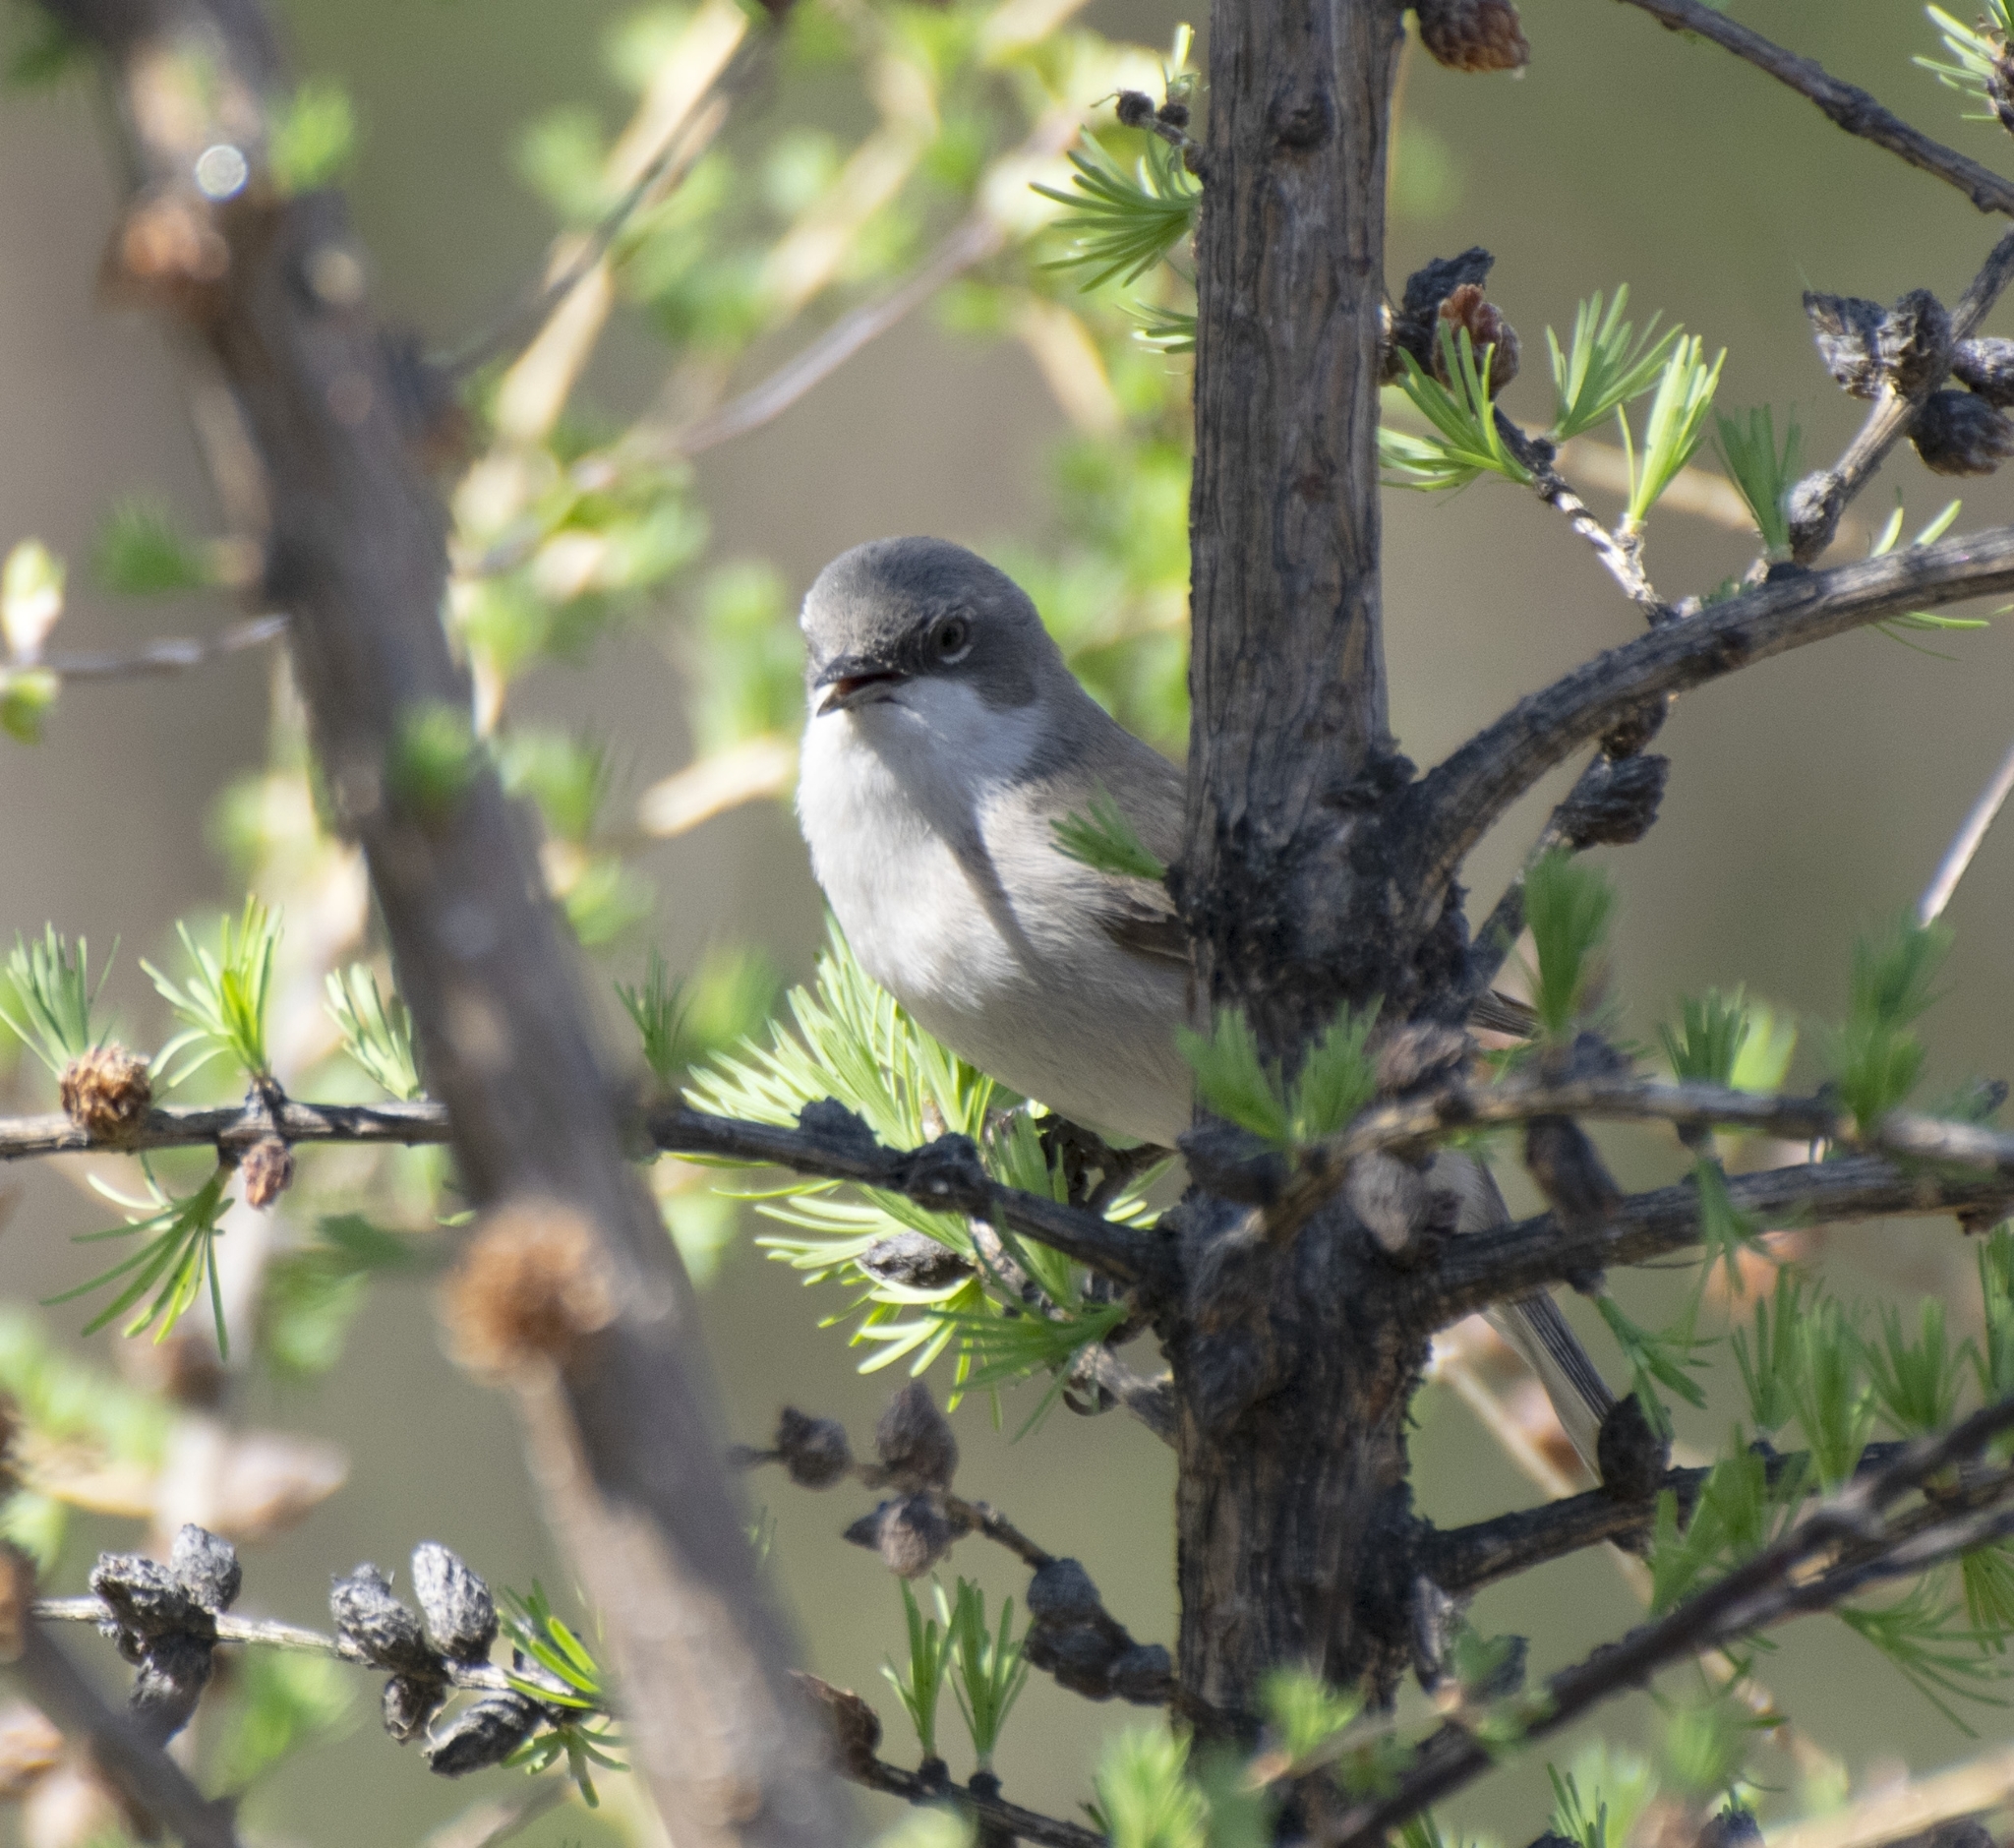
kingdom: Animalia
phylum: Chordata
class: Aves
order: Passeriformes
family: Sylviidae
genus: Sylvia
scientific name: Sylvia curruca
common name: Lesser whitethroat
